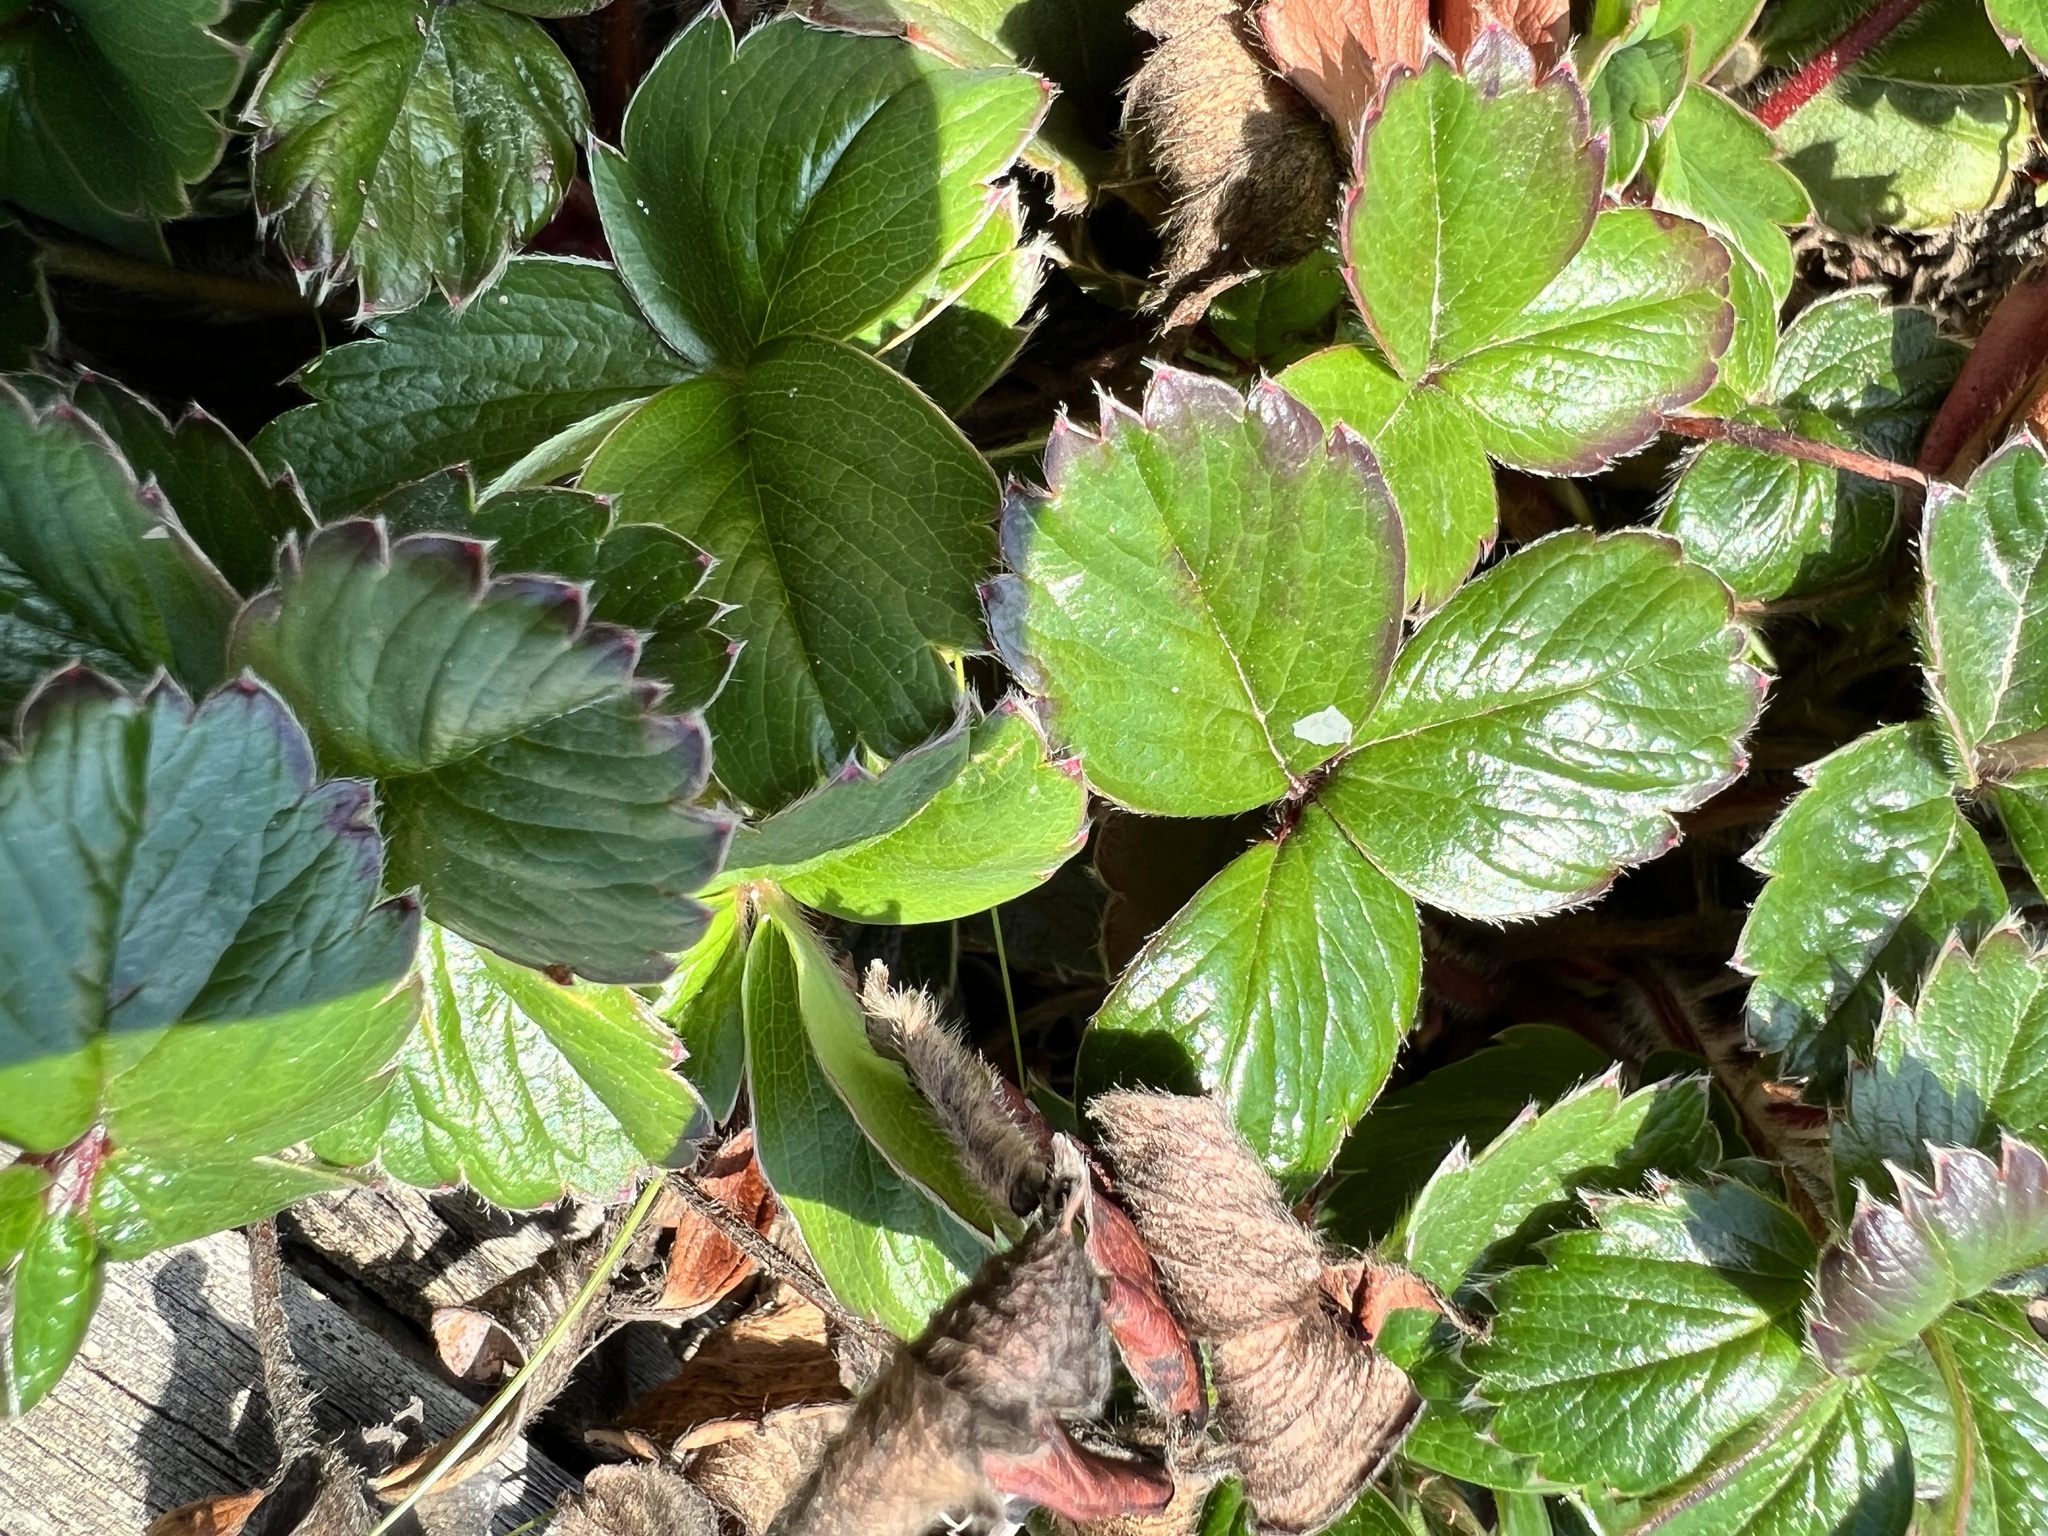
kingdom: Plantae
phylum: Tracheophyta
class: Magnoliopsida
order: Rosales
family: Rosaceae
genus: Fragaria
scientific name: Fragaria chiloensis
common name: Beach strawberry
